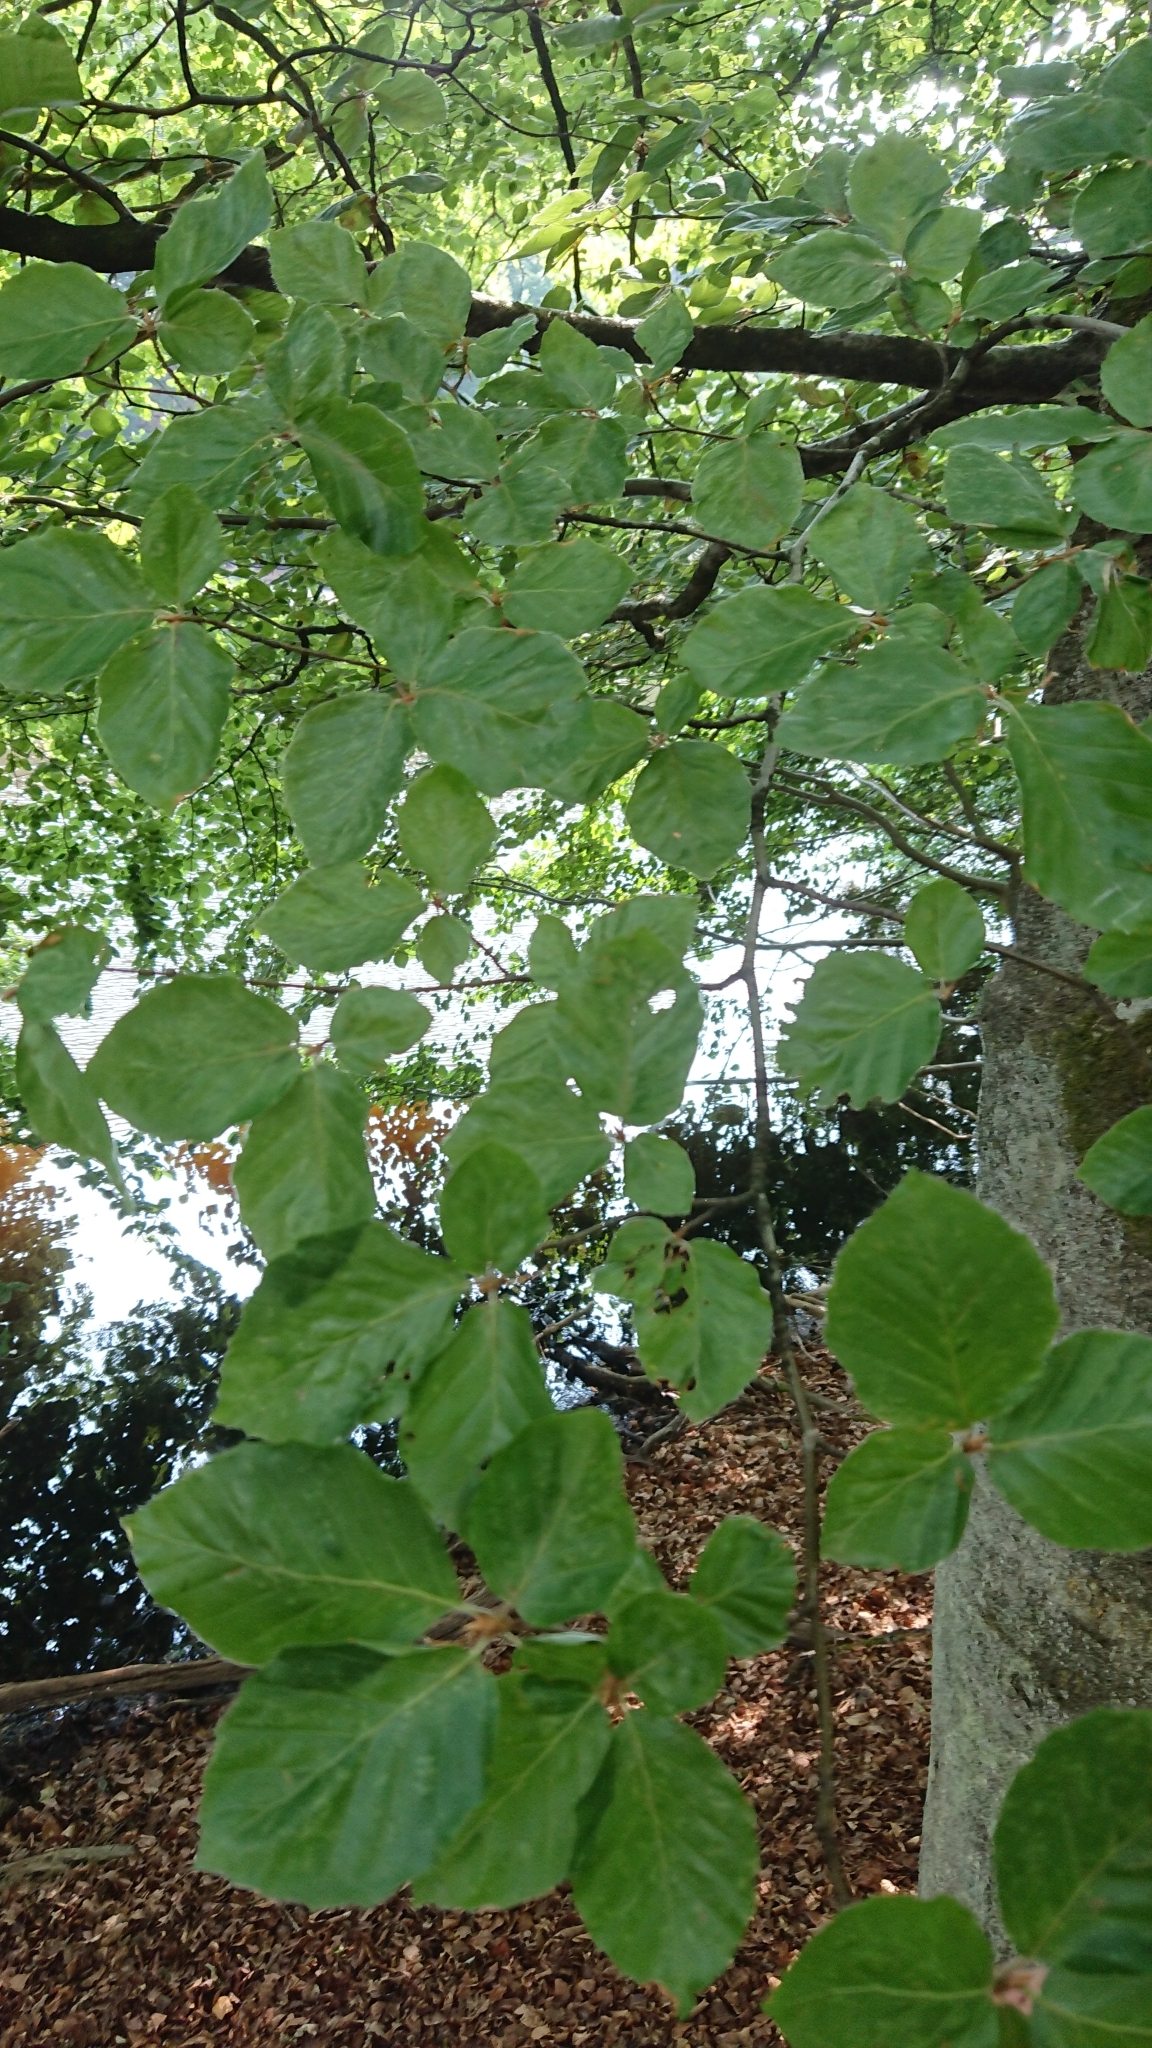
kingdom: Plantae
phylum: Tracheophyta
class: Magnoliopsida
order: Fagales
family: Fagaceae
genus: Fagus
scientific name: Fagus sylvatica
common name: Beech
